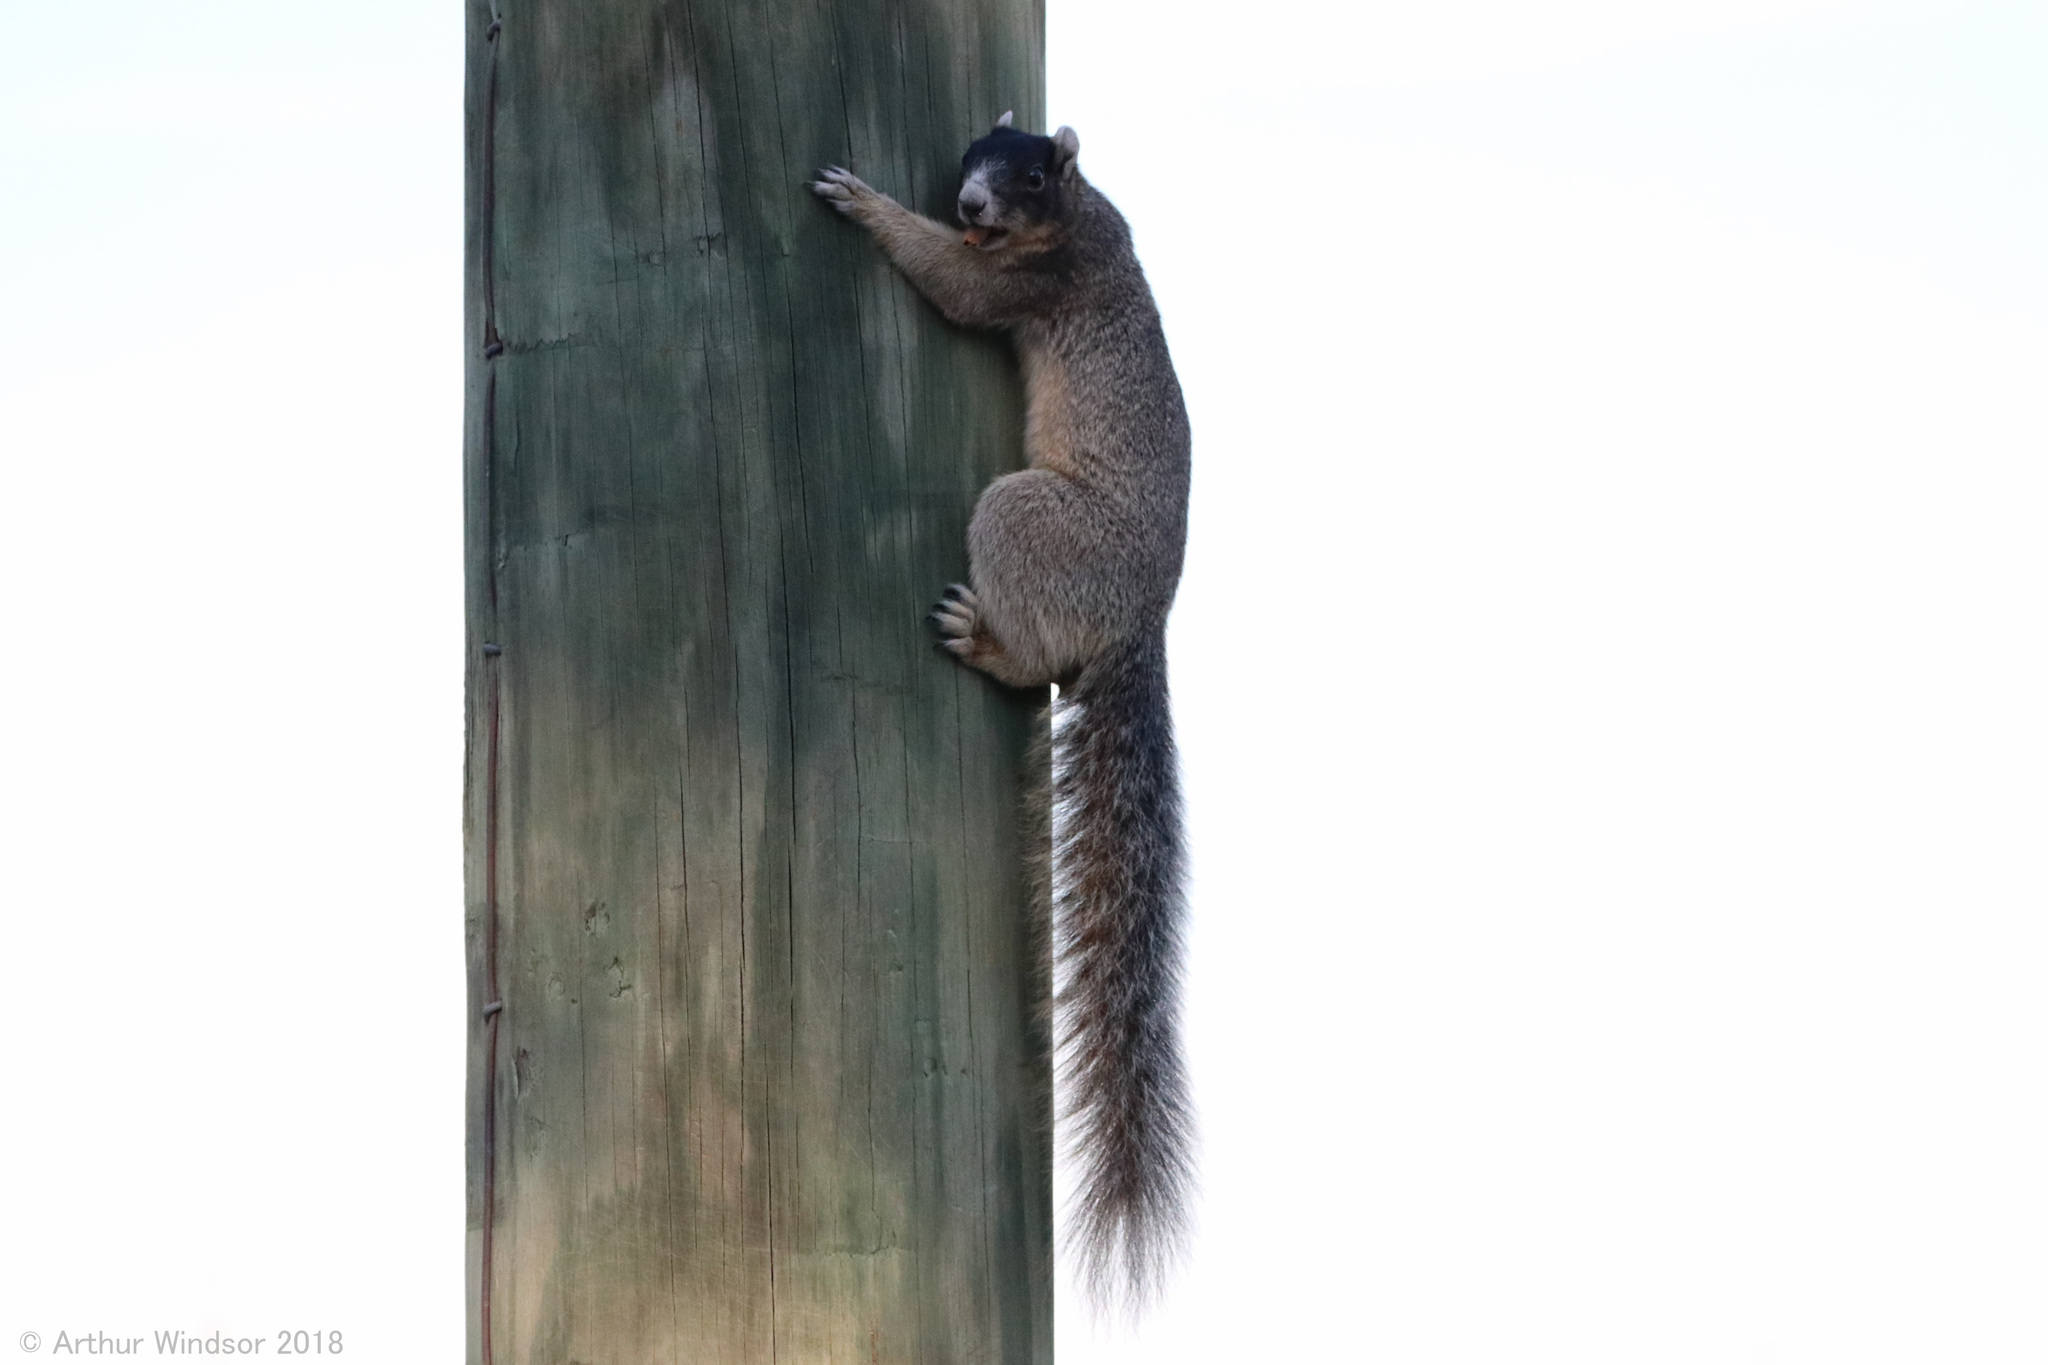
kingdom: Animalia
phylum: Chordata
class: Mammalia
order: Rodentia
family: Sciuridae
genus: Sciurus
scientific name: Sciurus niger
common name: Fox squirrel
